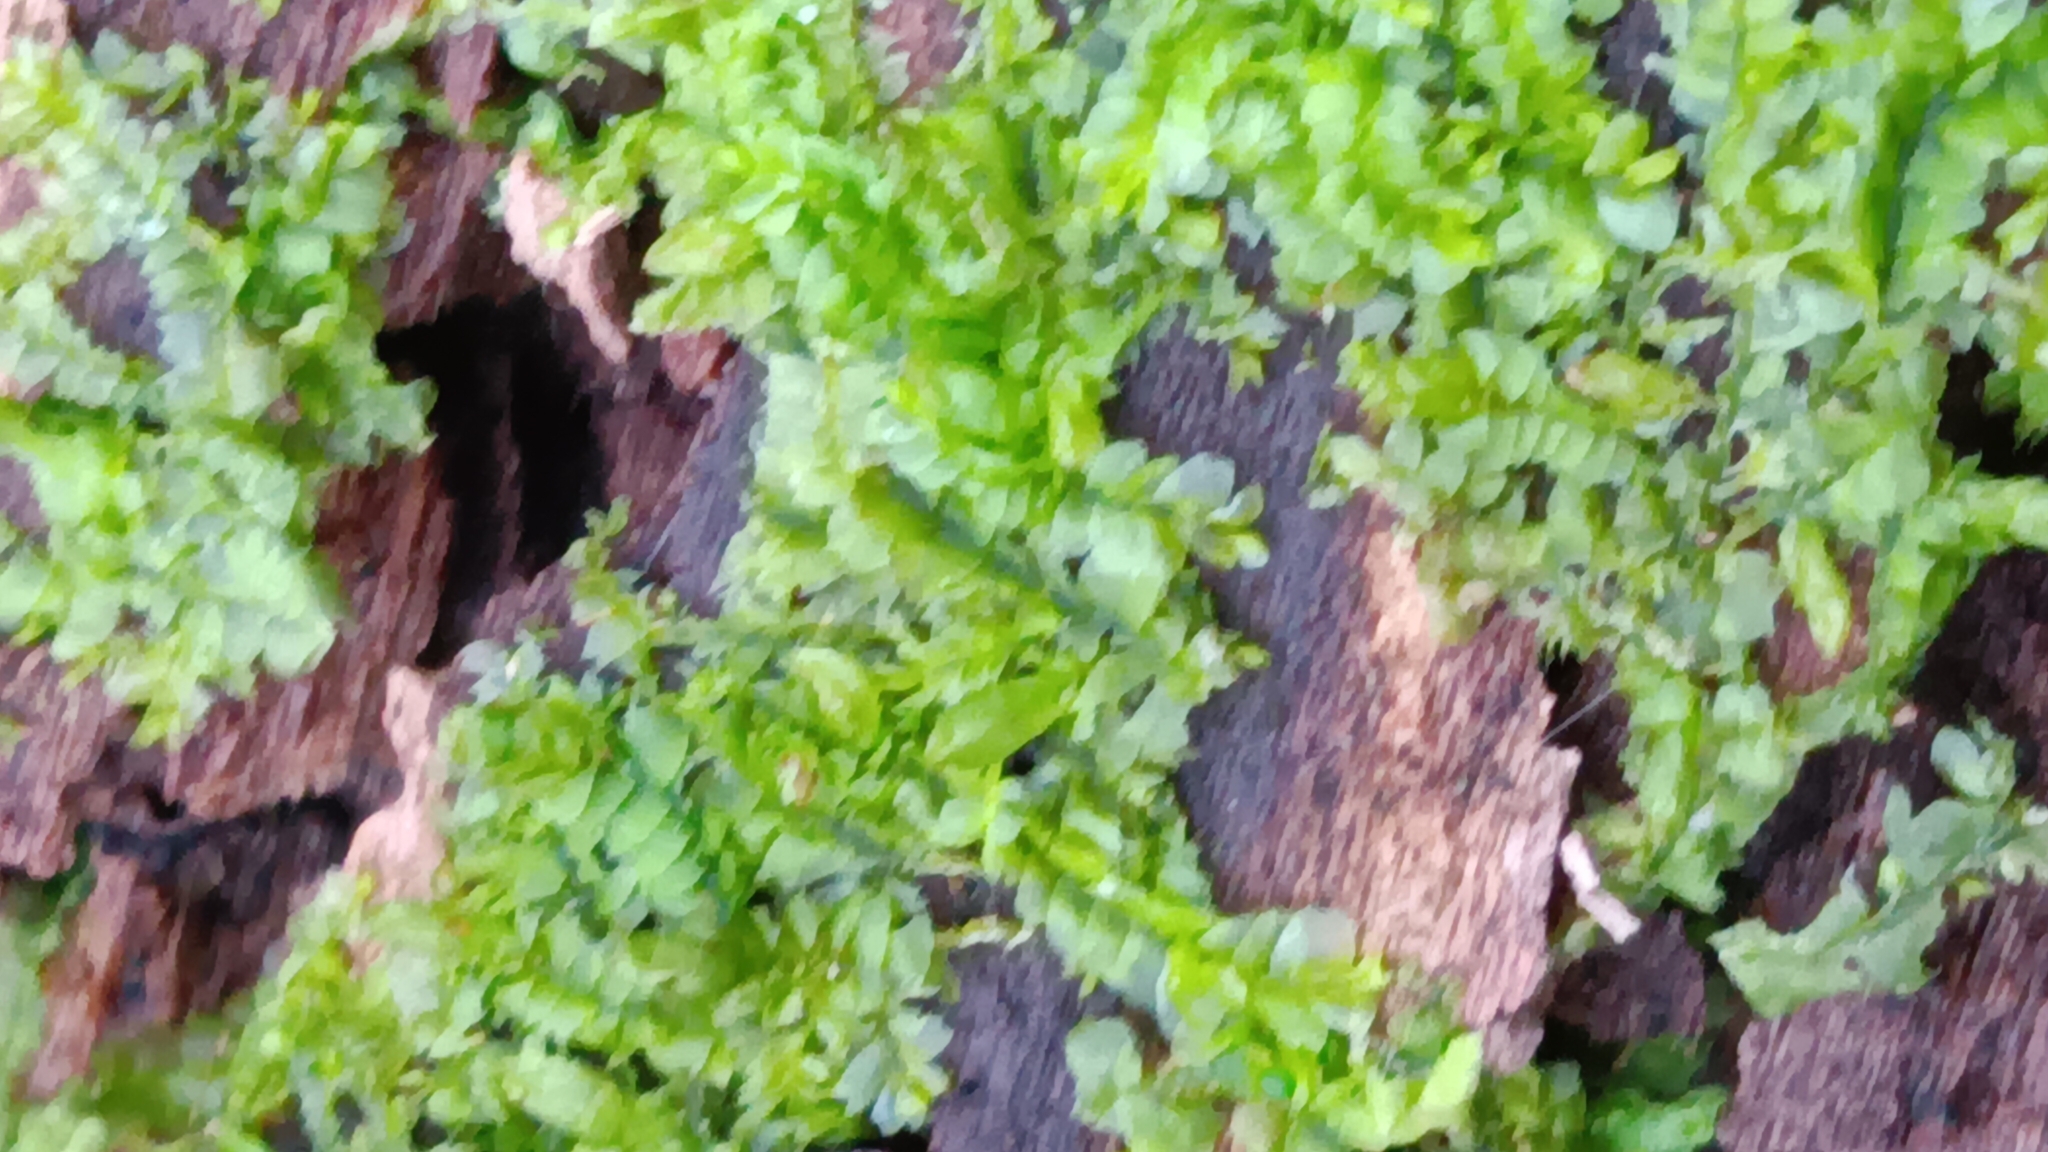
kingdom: Plantae
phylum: Marchantiophyta
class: Jungermanniopsida
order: Jungermanniales
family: Lophocoleaceae
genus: Lophocolea
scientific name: Lophocolea heterophylla
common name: Variable-leaved crestwort
